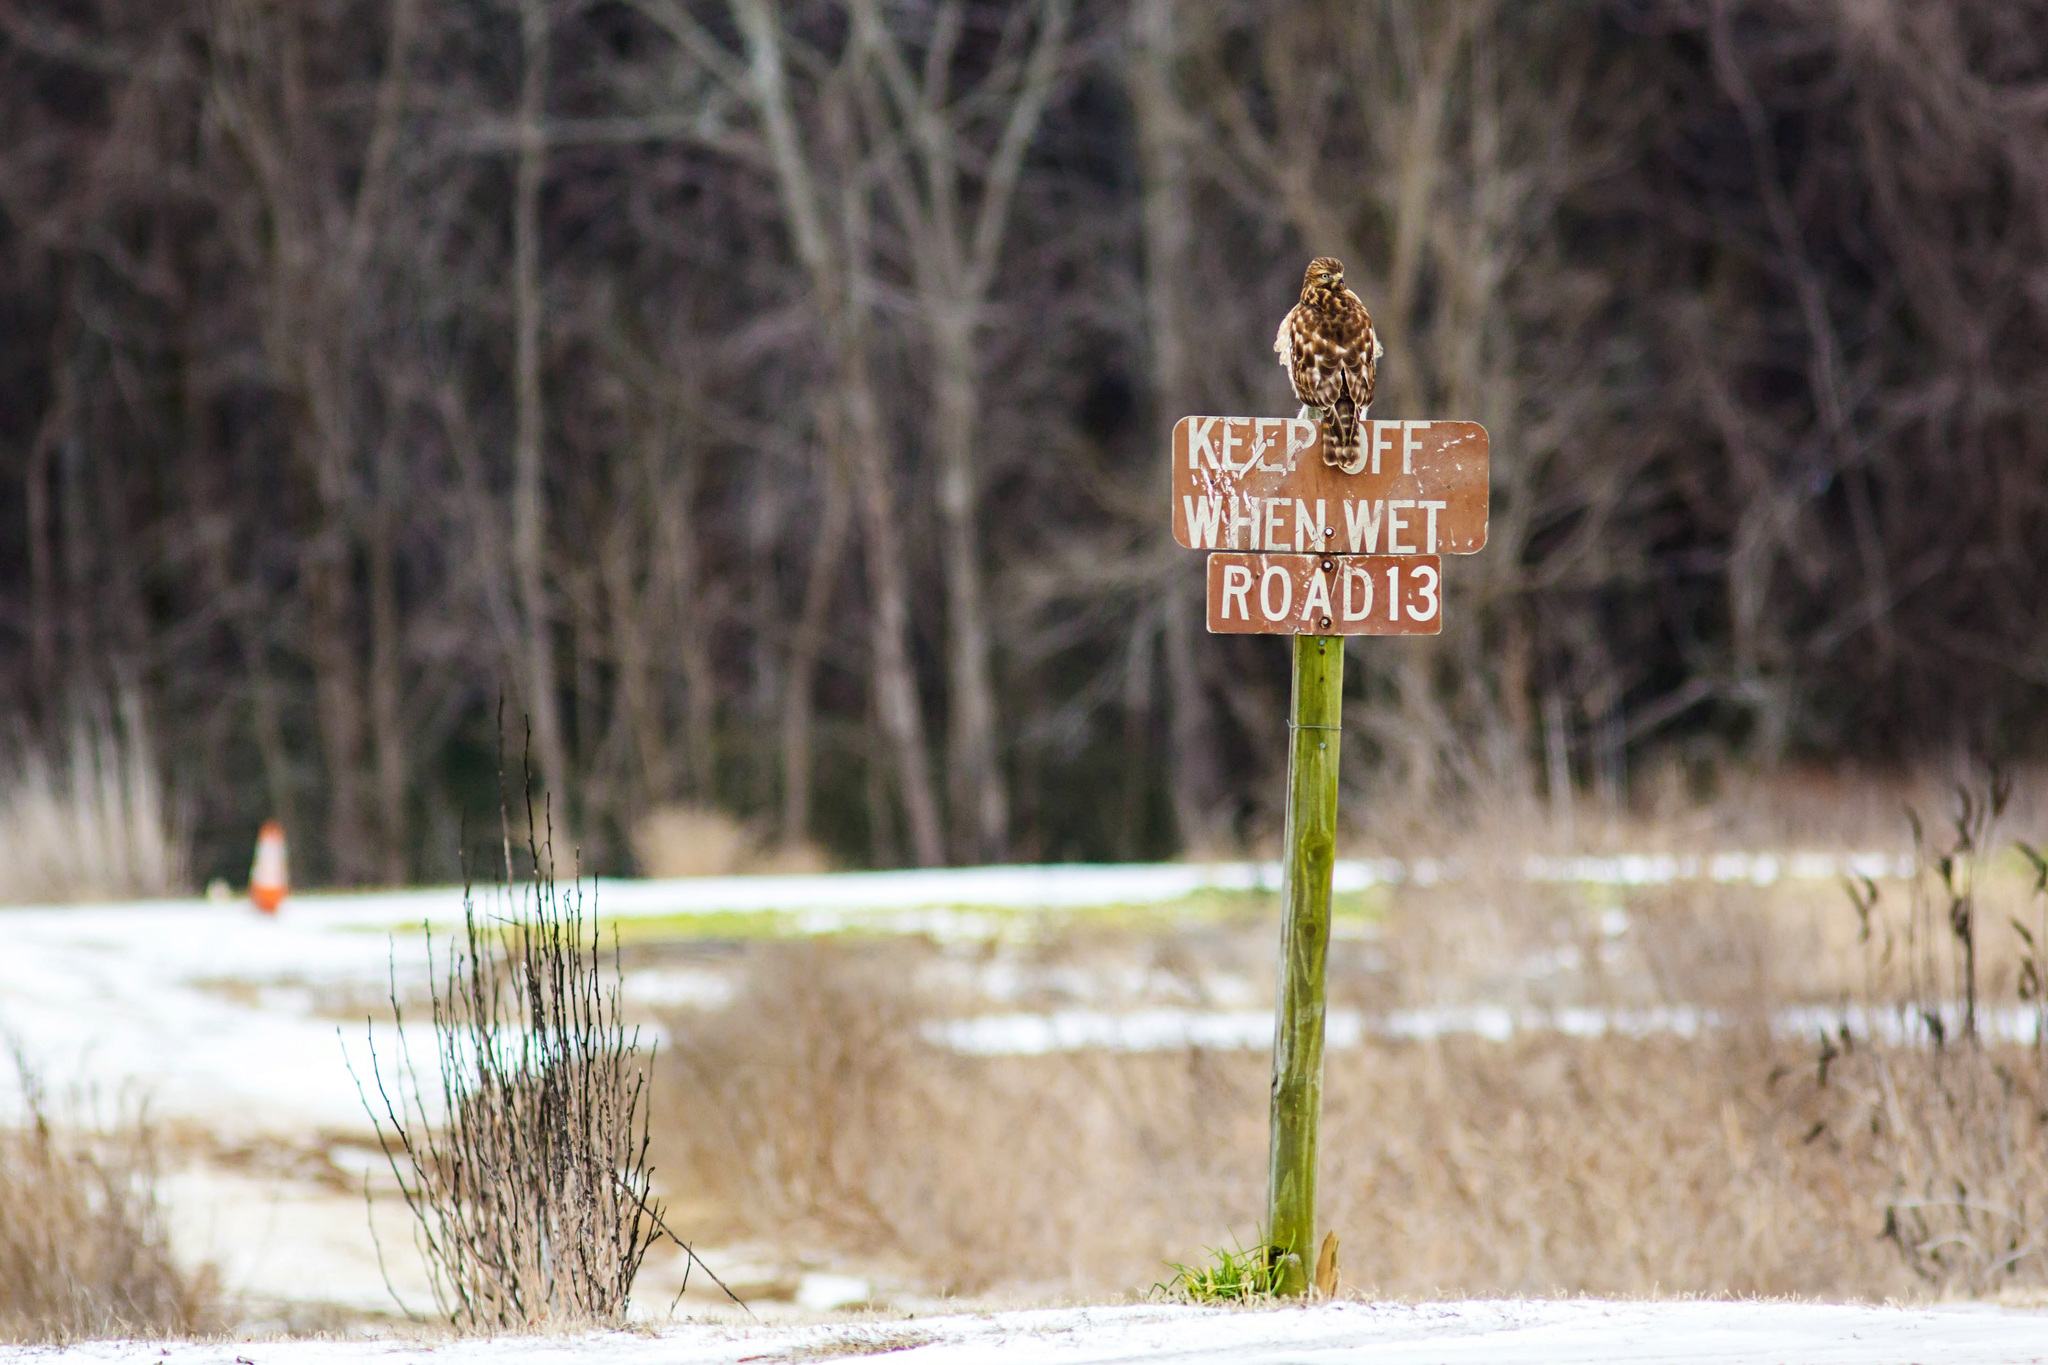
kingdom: Animalia
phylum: Chordata
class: Aves
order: Accipitriformes
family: Accipitridae
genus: Buteo
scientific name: Buteo lineatus
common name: Red-shouldered hawk
